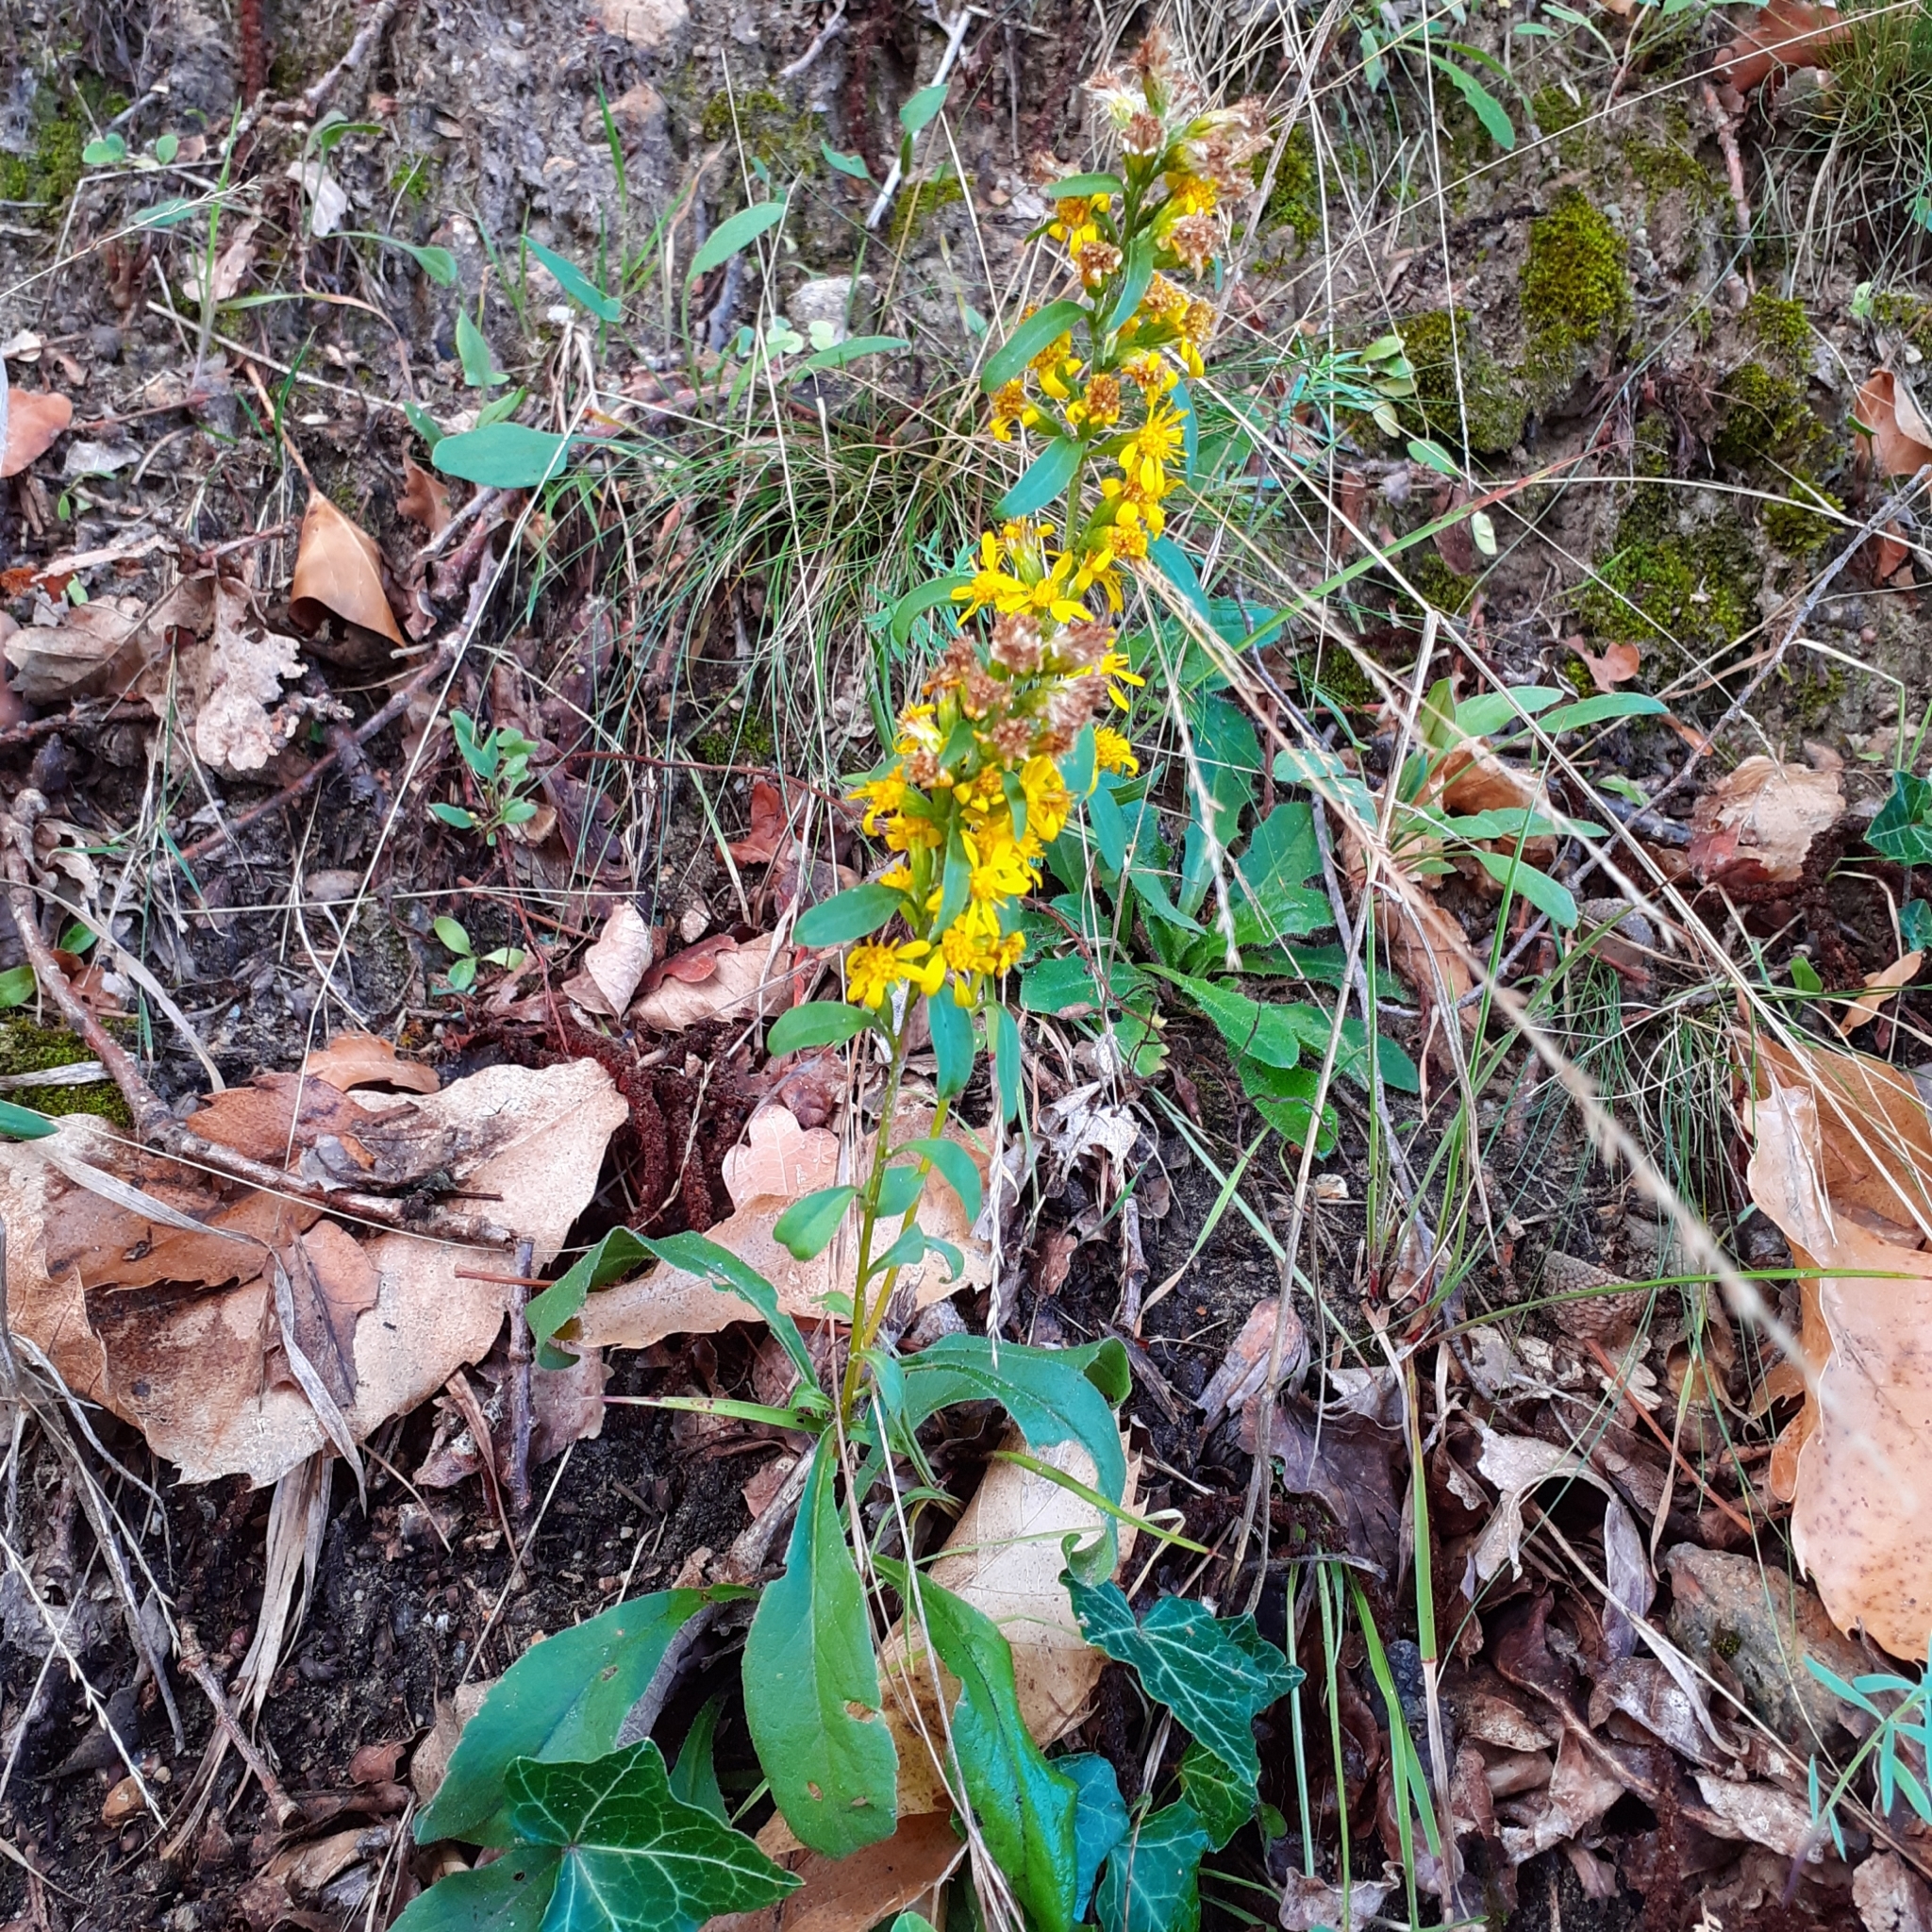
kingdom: Plantae
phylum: Tracheophyta
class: Magnoliopsida
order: Asterales
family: Asteraceae
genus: Solidago
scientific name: Solidago virgaurea
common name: Goldenrod
